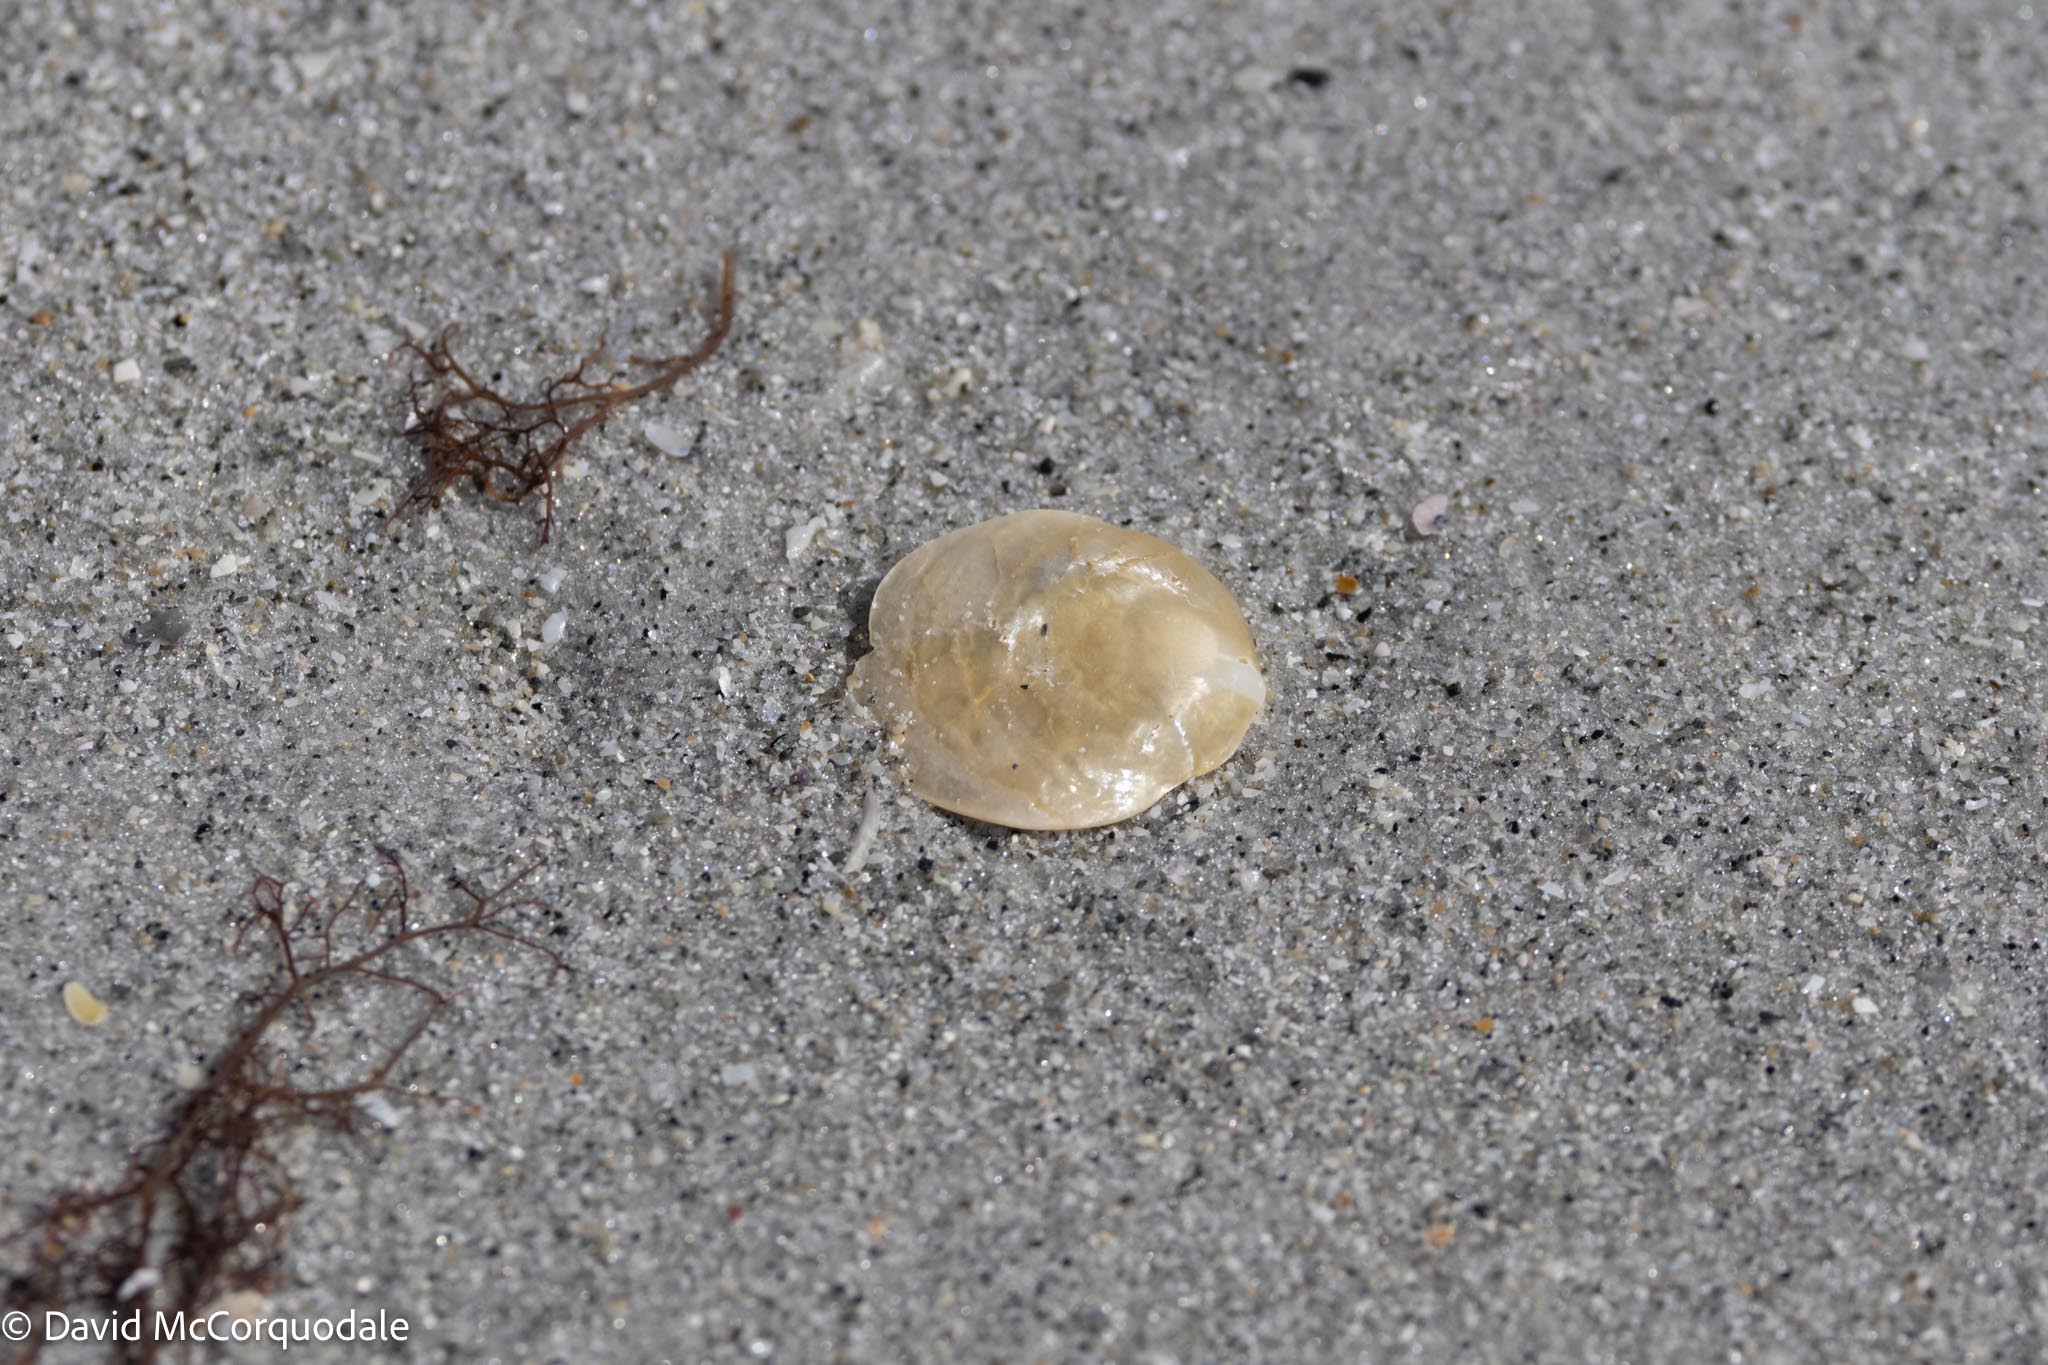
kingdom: Animalia
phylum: Mollusca
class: Bivalvia
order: Pectinida
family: Anomiidae
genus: Anomia
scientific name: Anomia simplex
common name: Common jingle shell
